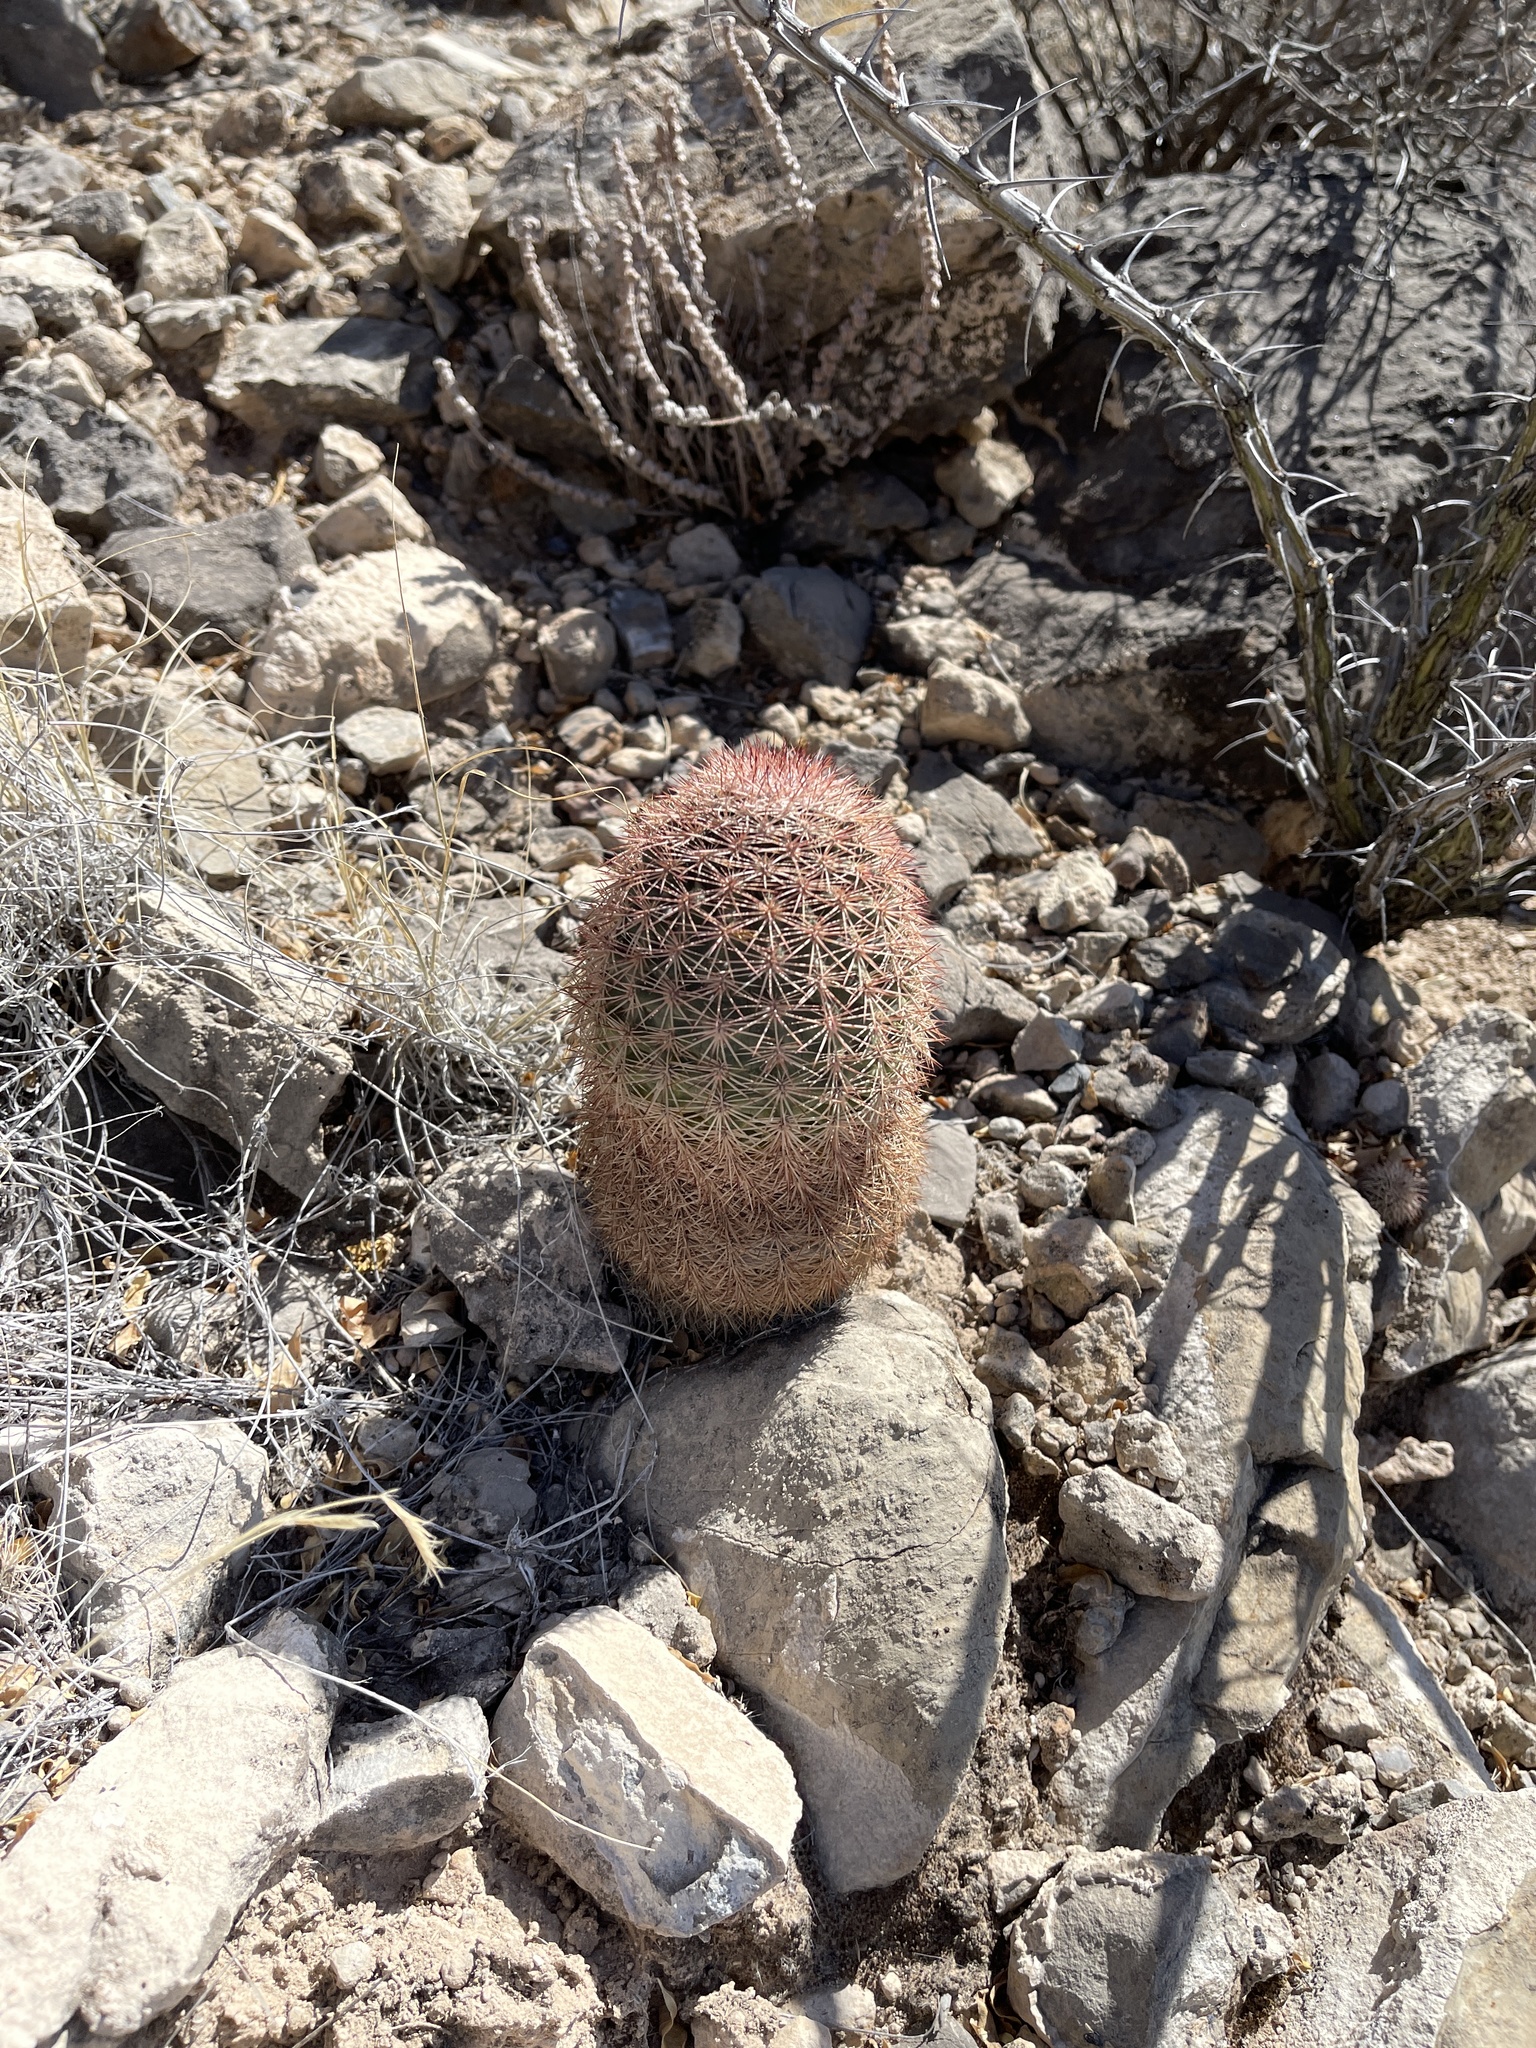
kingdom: Plantae
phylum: Tracheophyta
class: Magnoliopsida
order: Caryophyllales
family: Cactaceae
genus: Echinocereus
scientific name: Echinocereus dasyacanthus
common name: Spiny hedgehog cactus
